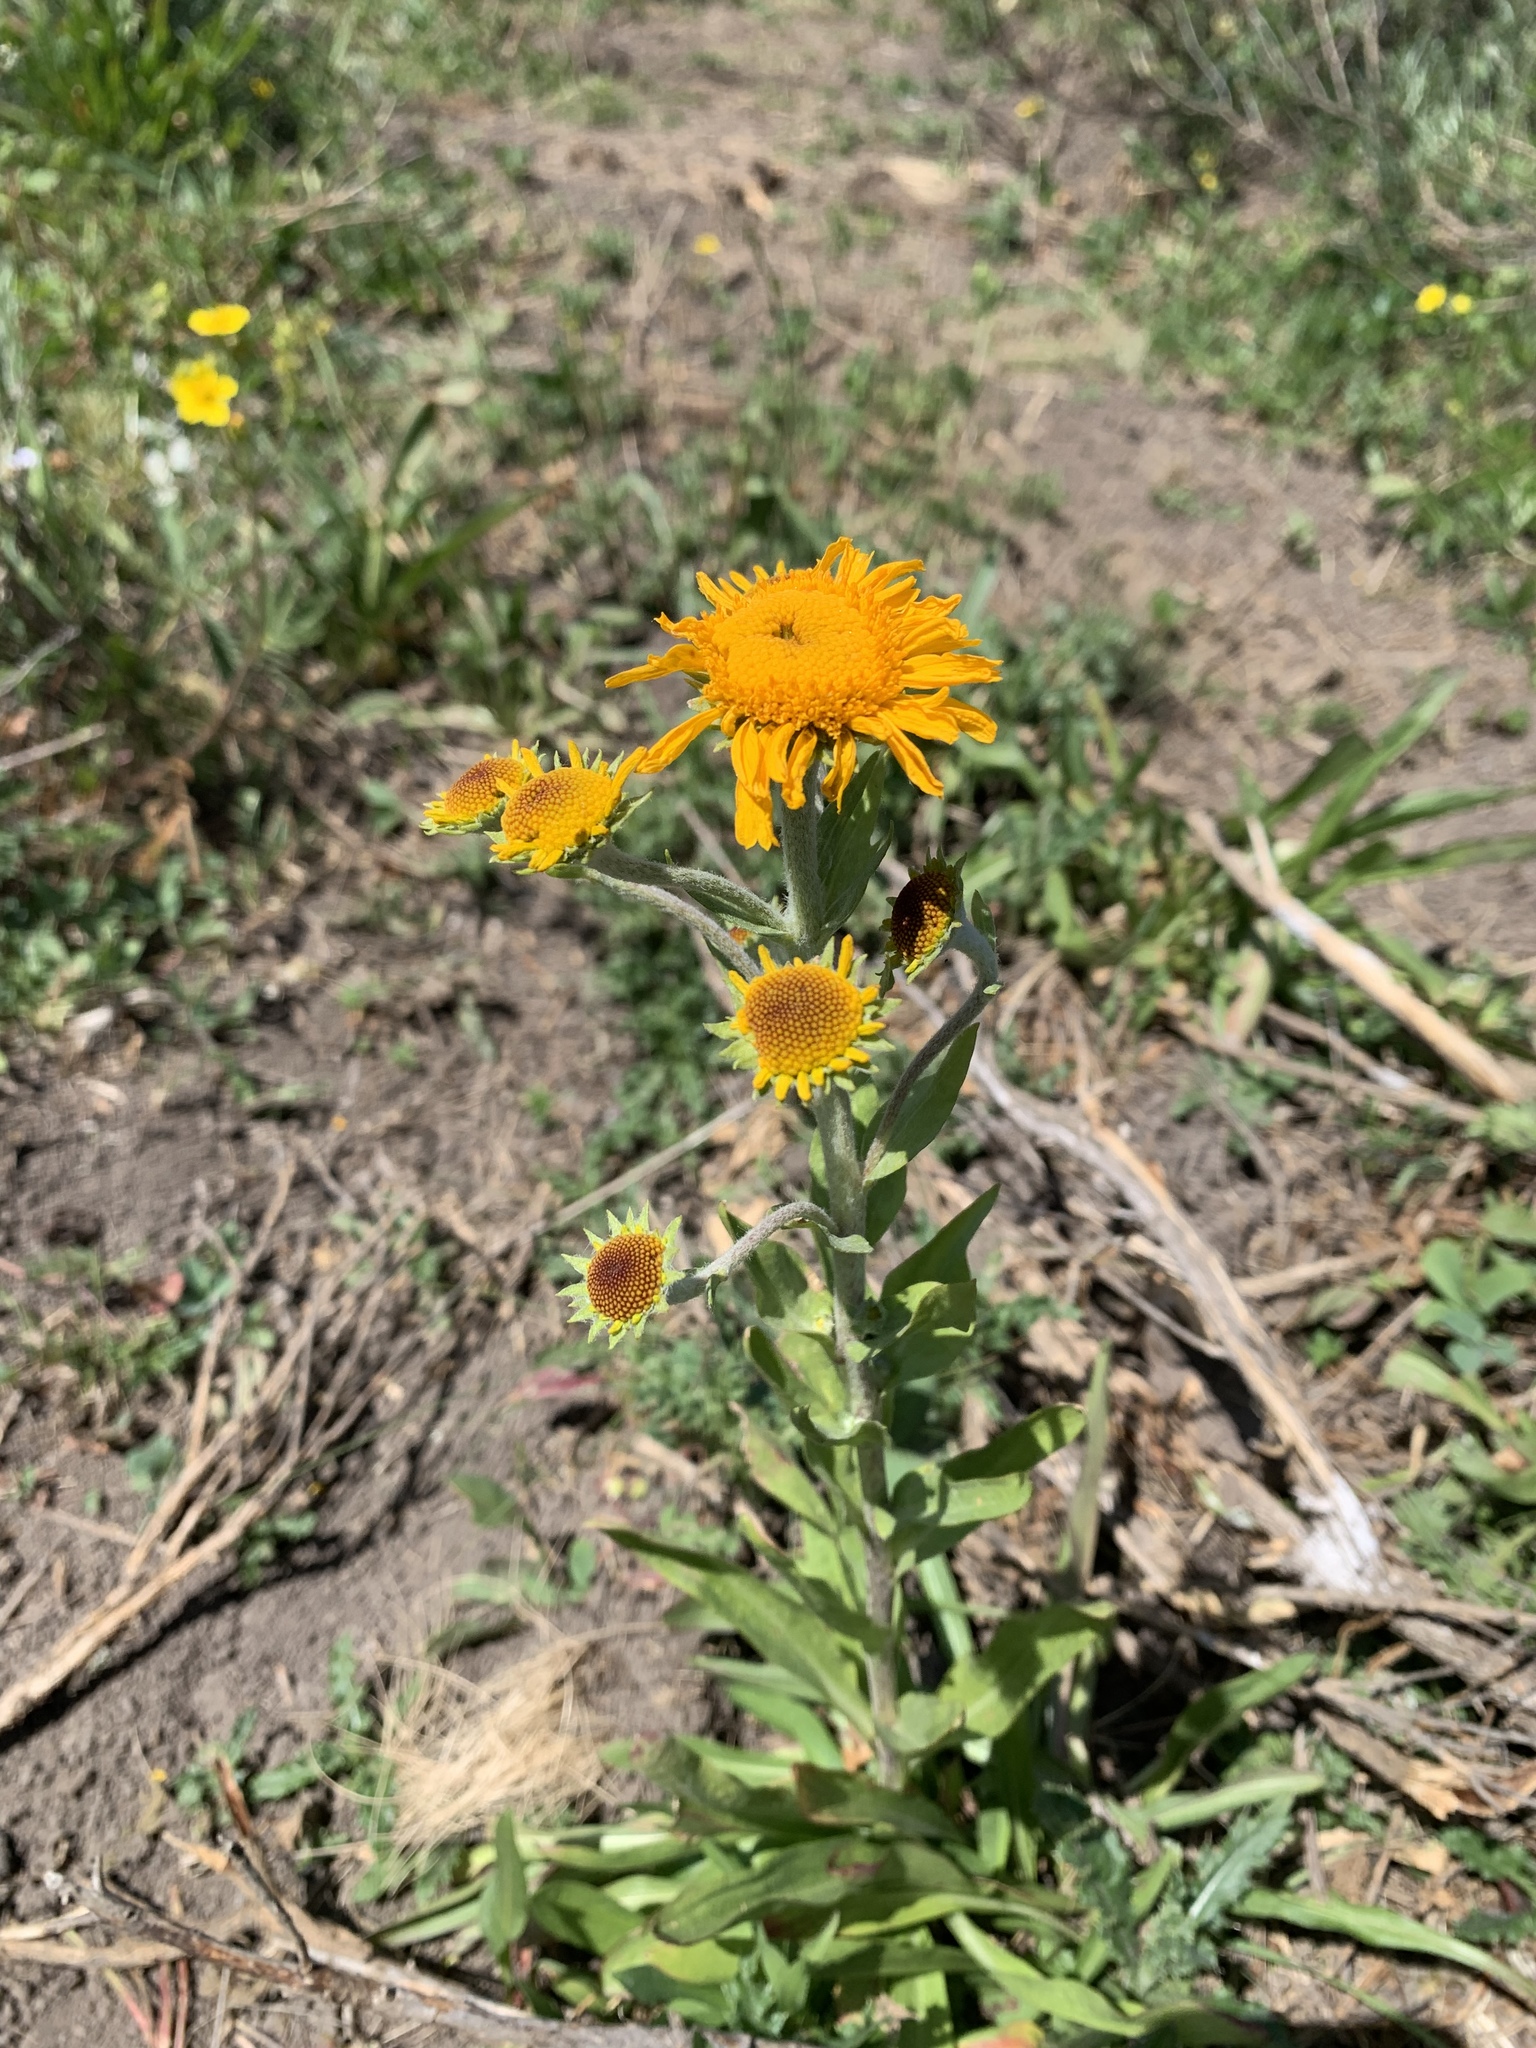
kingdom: Plantae
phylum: Tracheophyta
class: Magnoliopsida
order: Asterales
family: Asteraceae
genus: Hymenoxys
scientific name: Hymenoxys hoopesii
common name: Orange-sneezeweed
